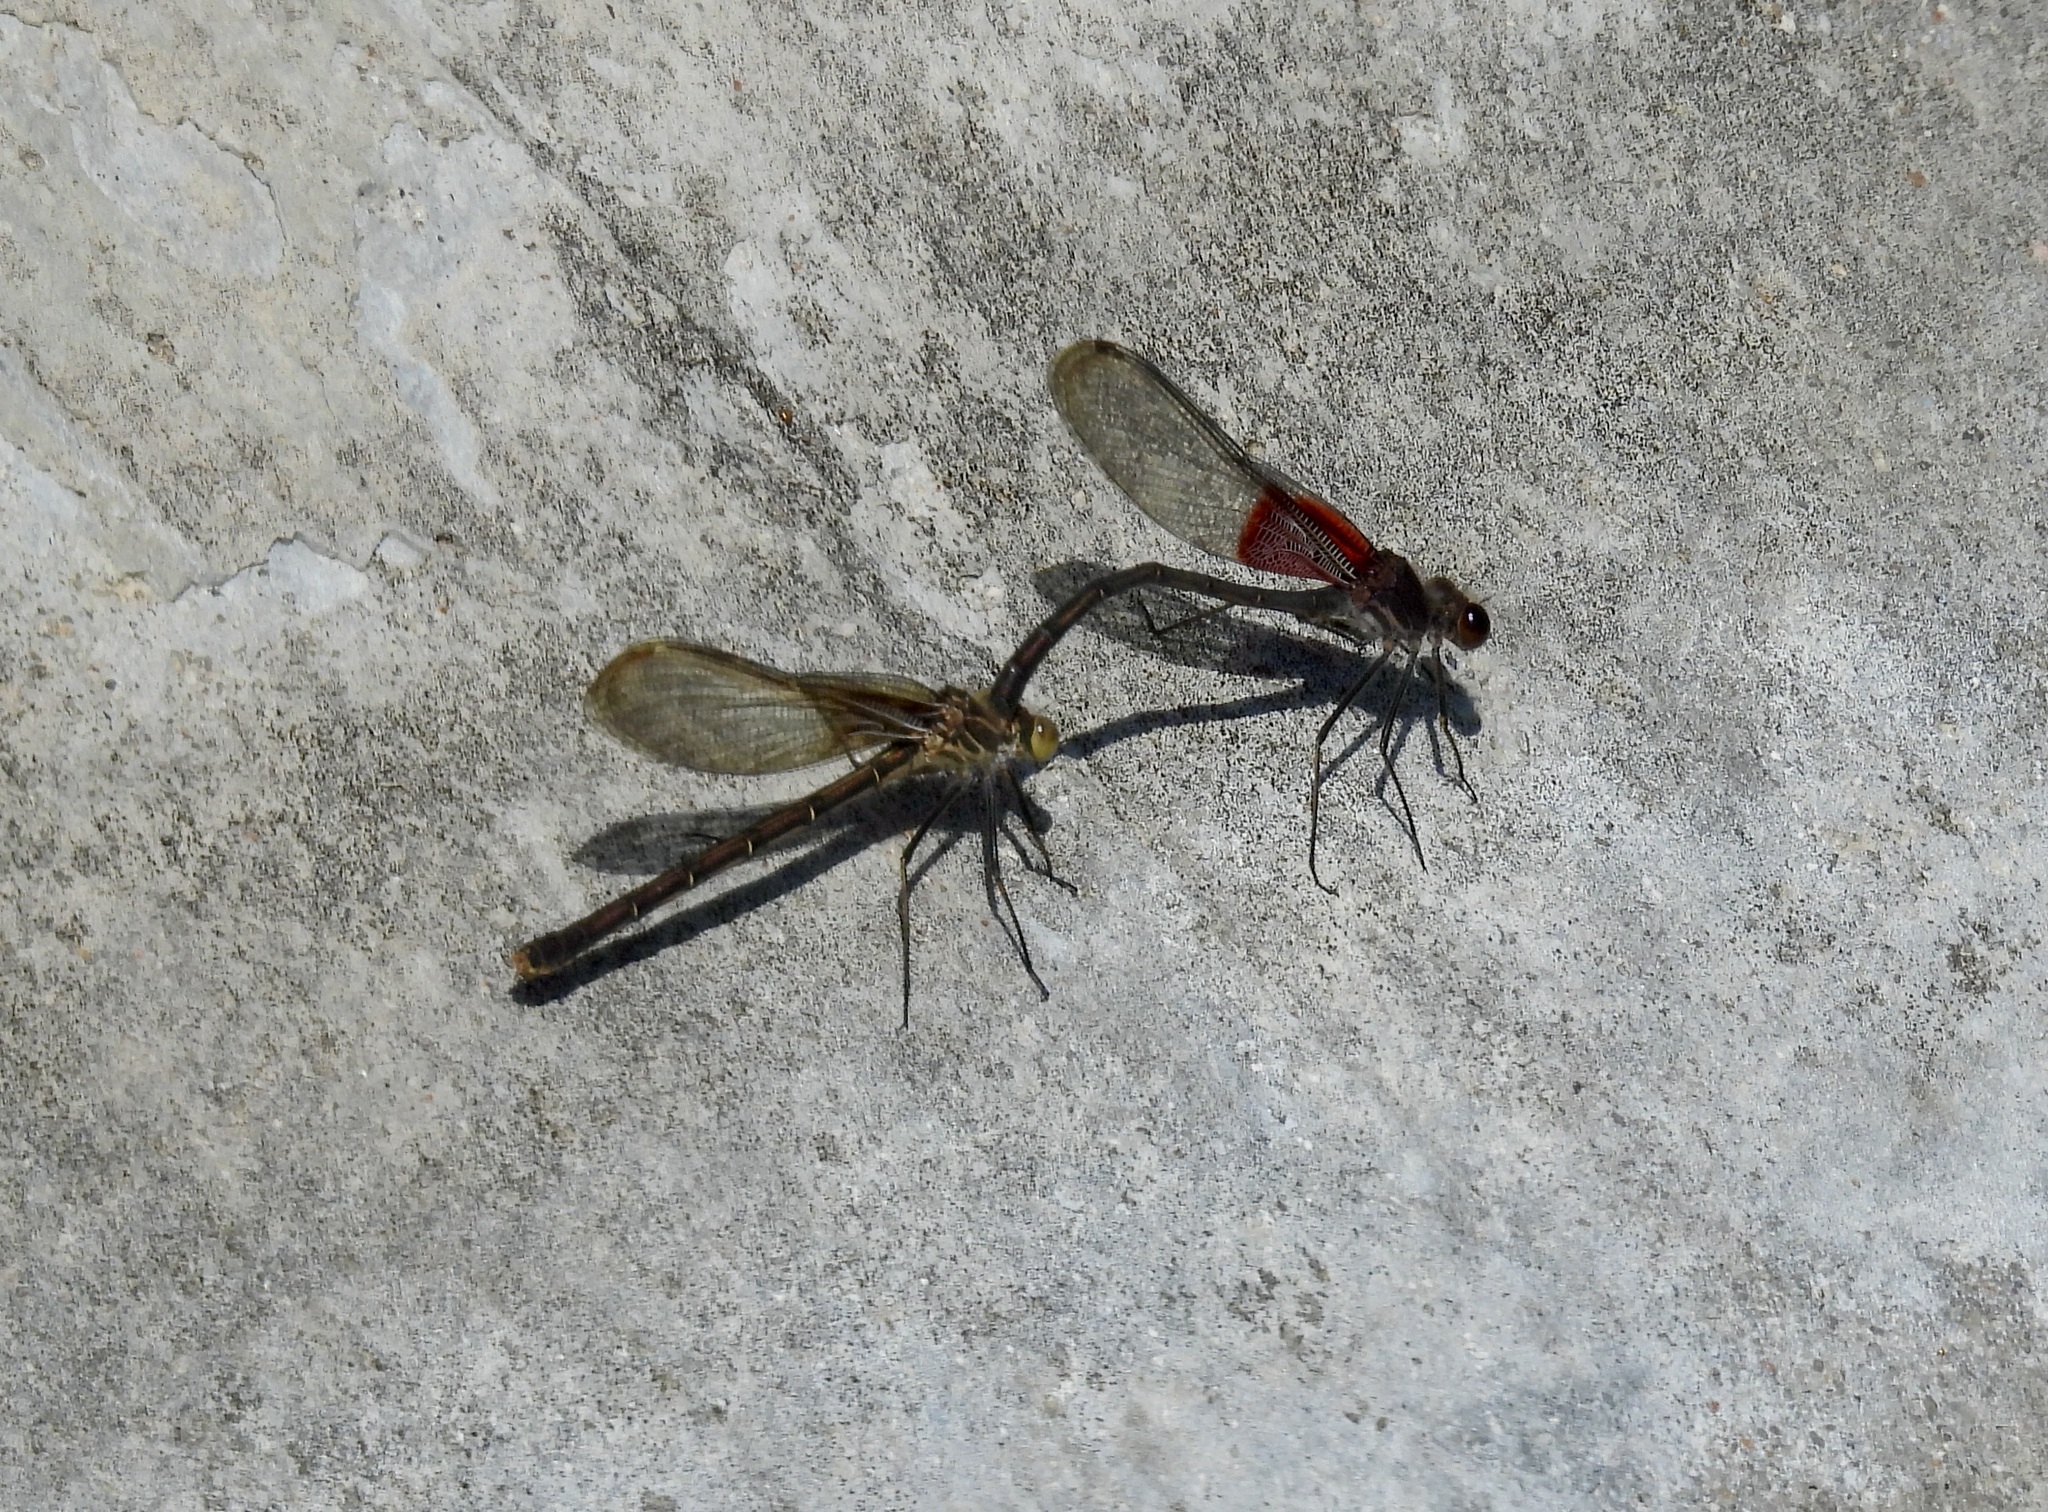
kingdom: Animalia
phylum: Arthropoda
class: Insecta
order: Odonata
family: Calopterygidae
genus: Hetaerina
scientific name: Hetaerina americana
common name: American rubyspot
